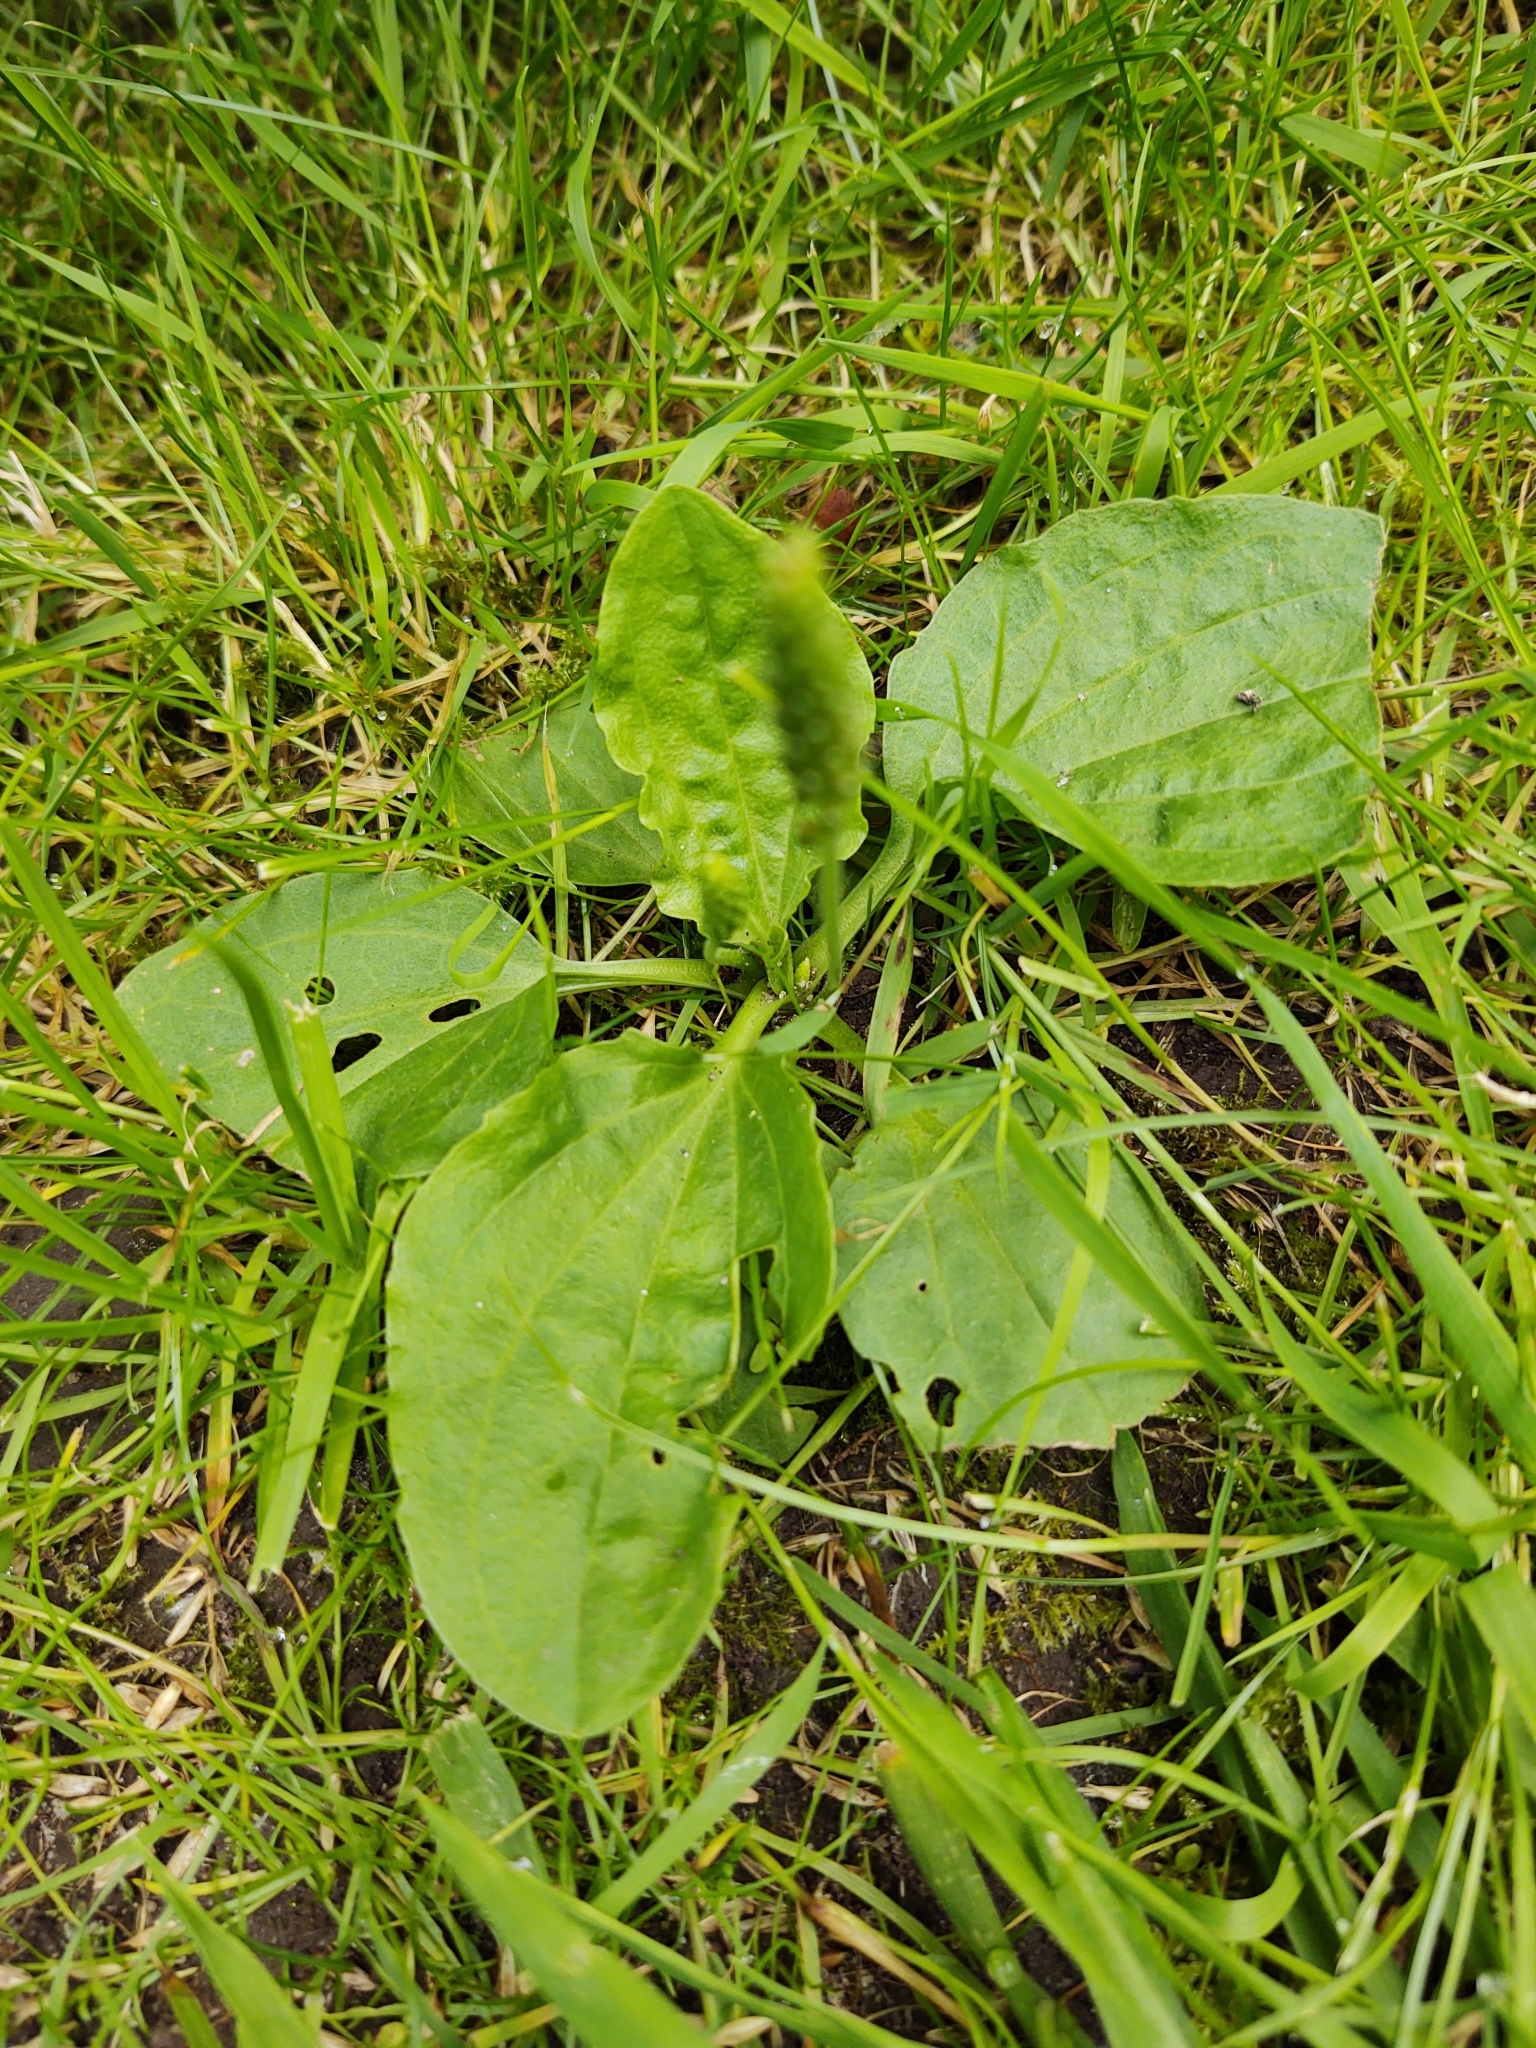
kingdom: Plantae
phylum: Tracheophyta
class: Magnoliopsida
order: Lamiales
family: Plantaginaceae
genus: Plantago
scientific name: Plantago major
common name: Common plantain
